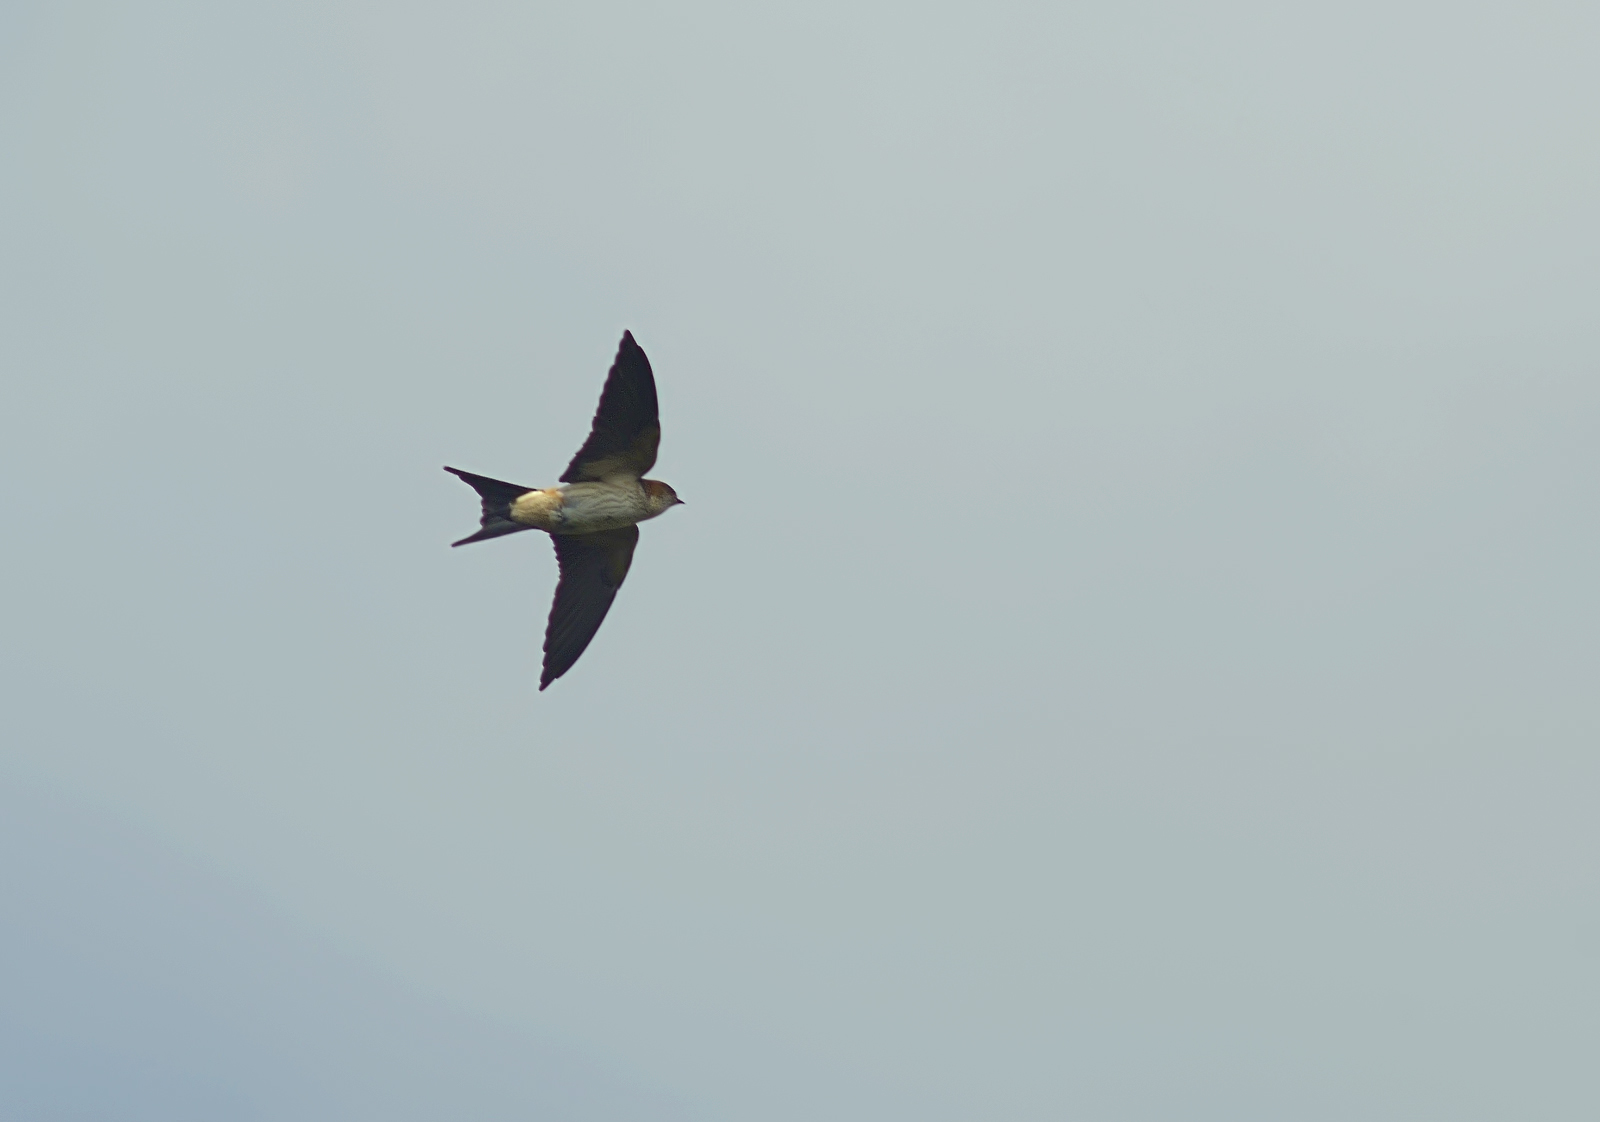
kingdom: Animalia
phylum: Chordata
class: Aves
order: Passeriformes
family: Hirundinidae
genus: Cecropis
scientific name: Cecropis daurica
